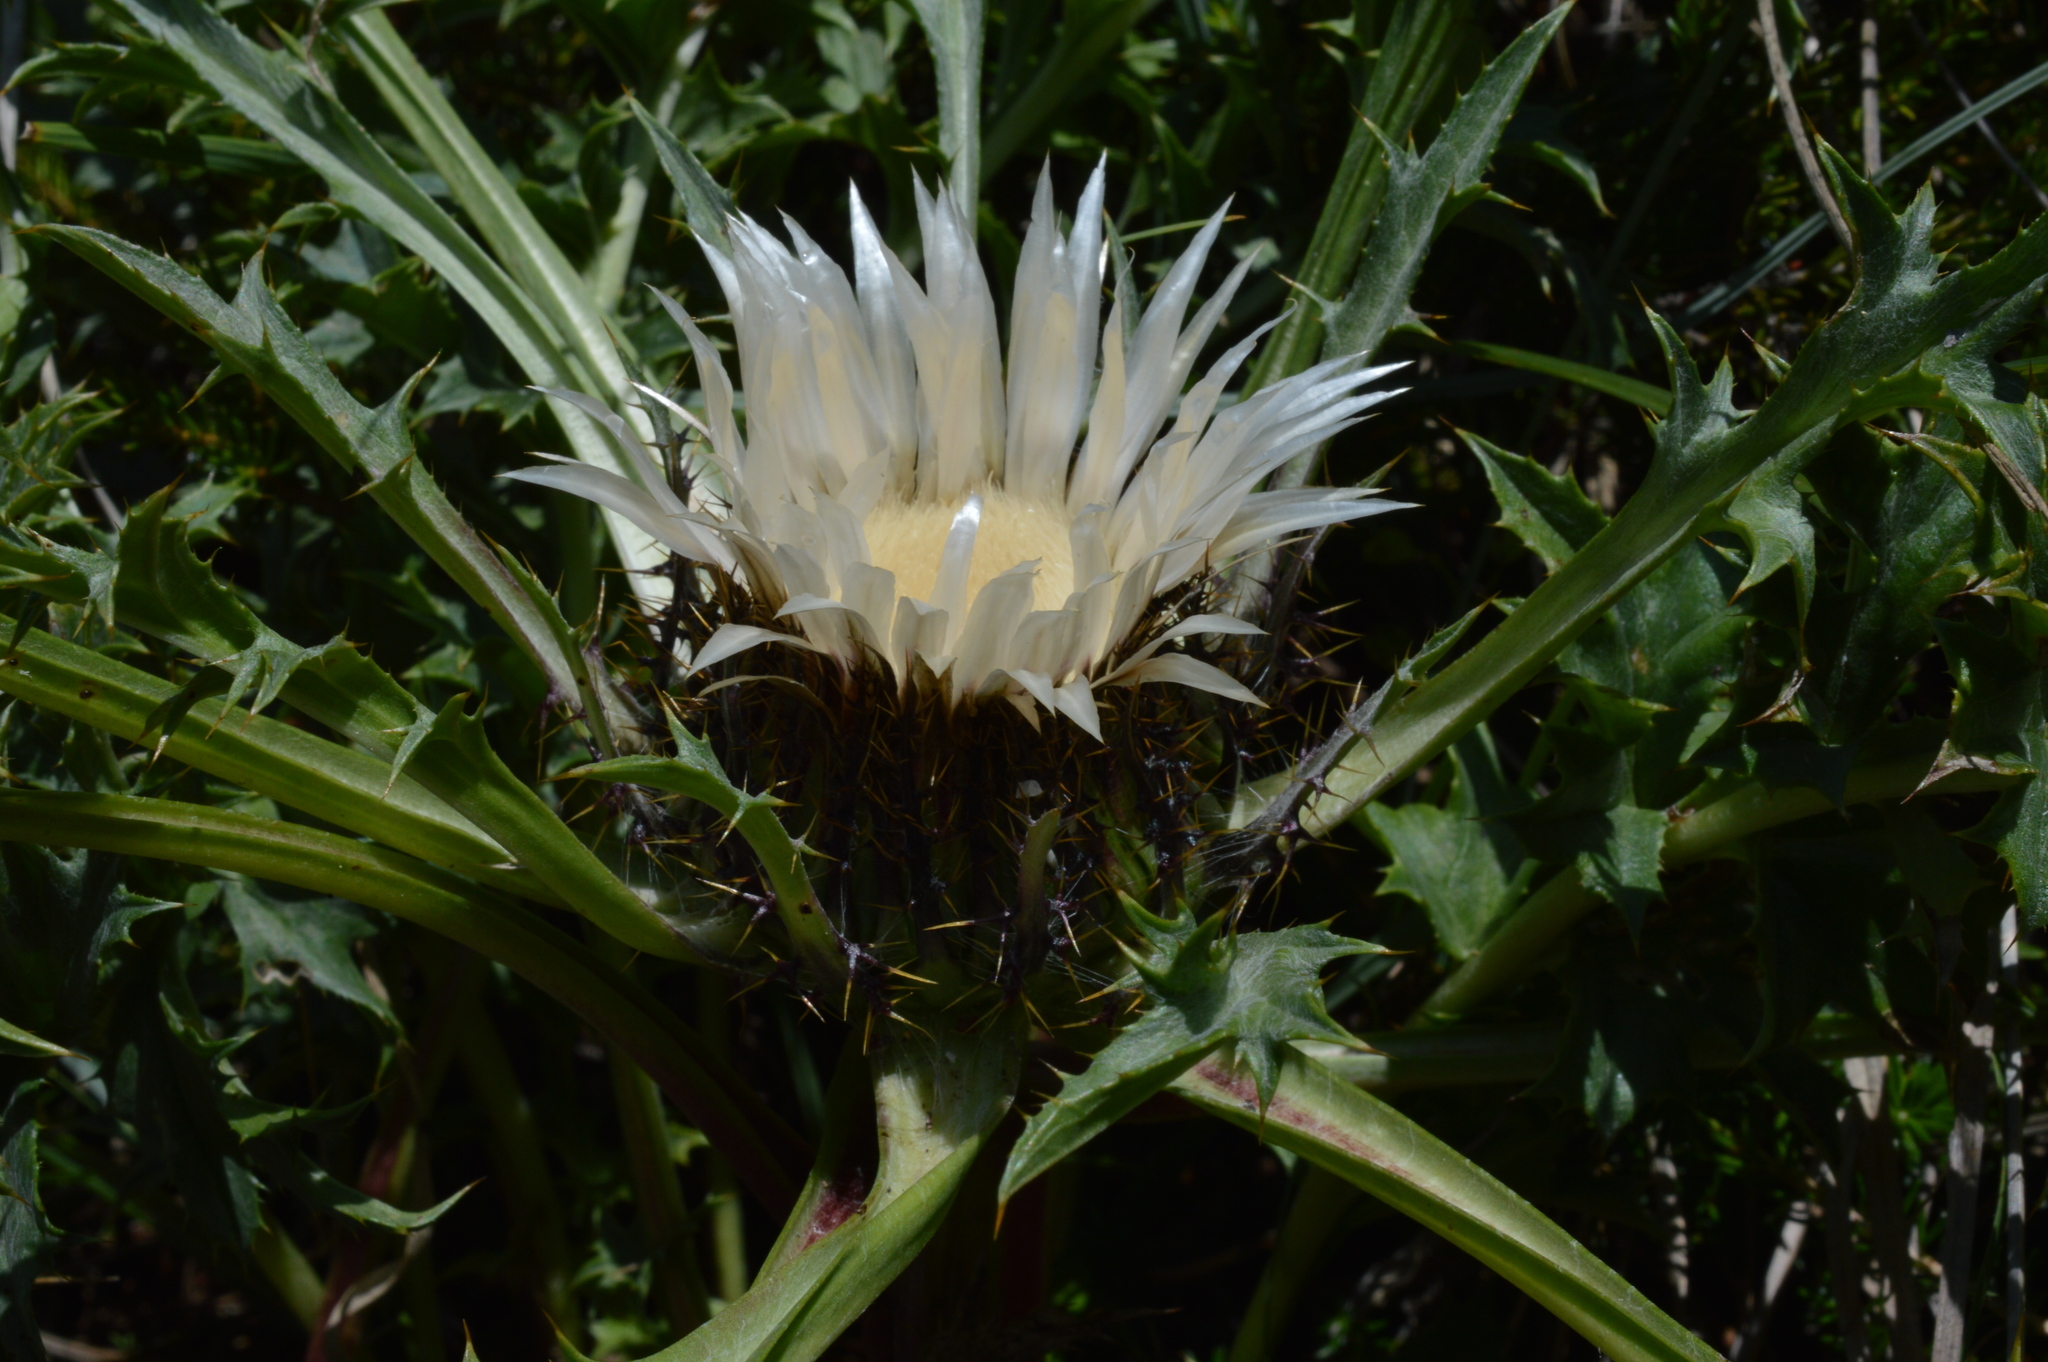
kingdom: Plantae
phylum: Tracheophyta
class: Magnoliopsida
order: Asterales
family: Asteraceae
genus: Carlina
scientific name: Carlina acaulis
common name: Stemless carline thistle
